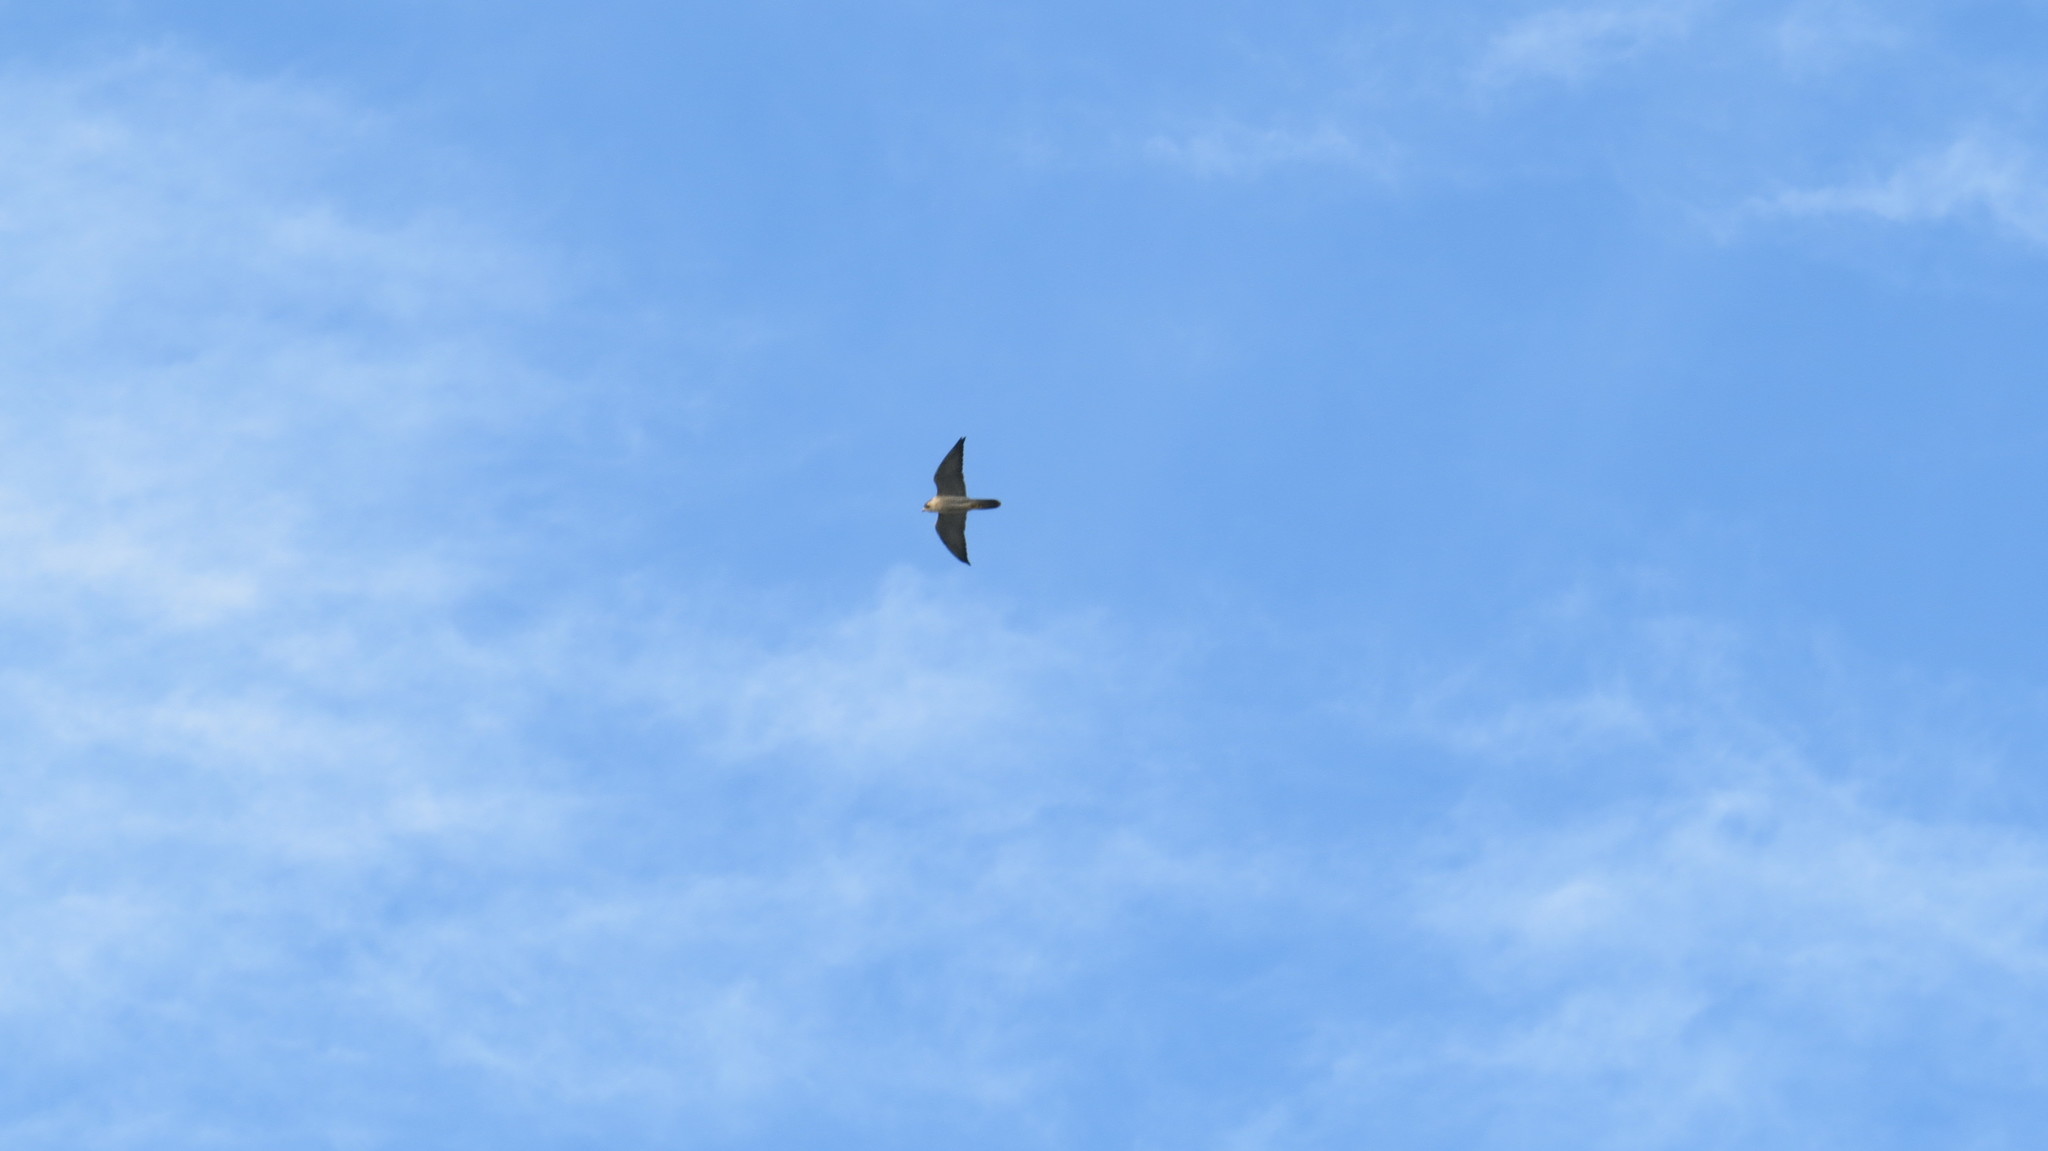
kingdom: Animalia
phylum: Chordata
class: Aves
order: Falconiformes
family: Falconidae
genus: Falco
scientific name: Falco peregrinus
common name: Peregrine falcon
